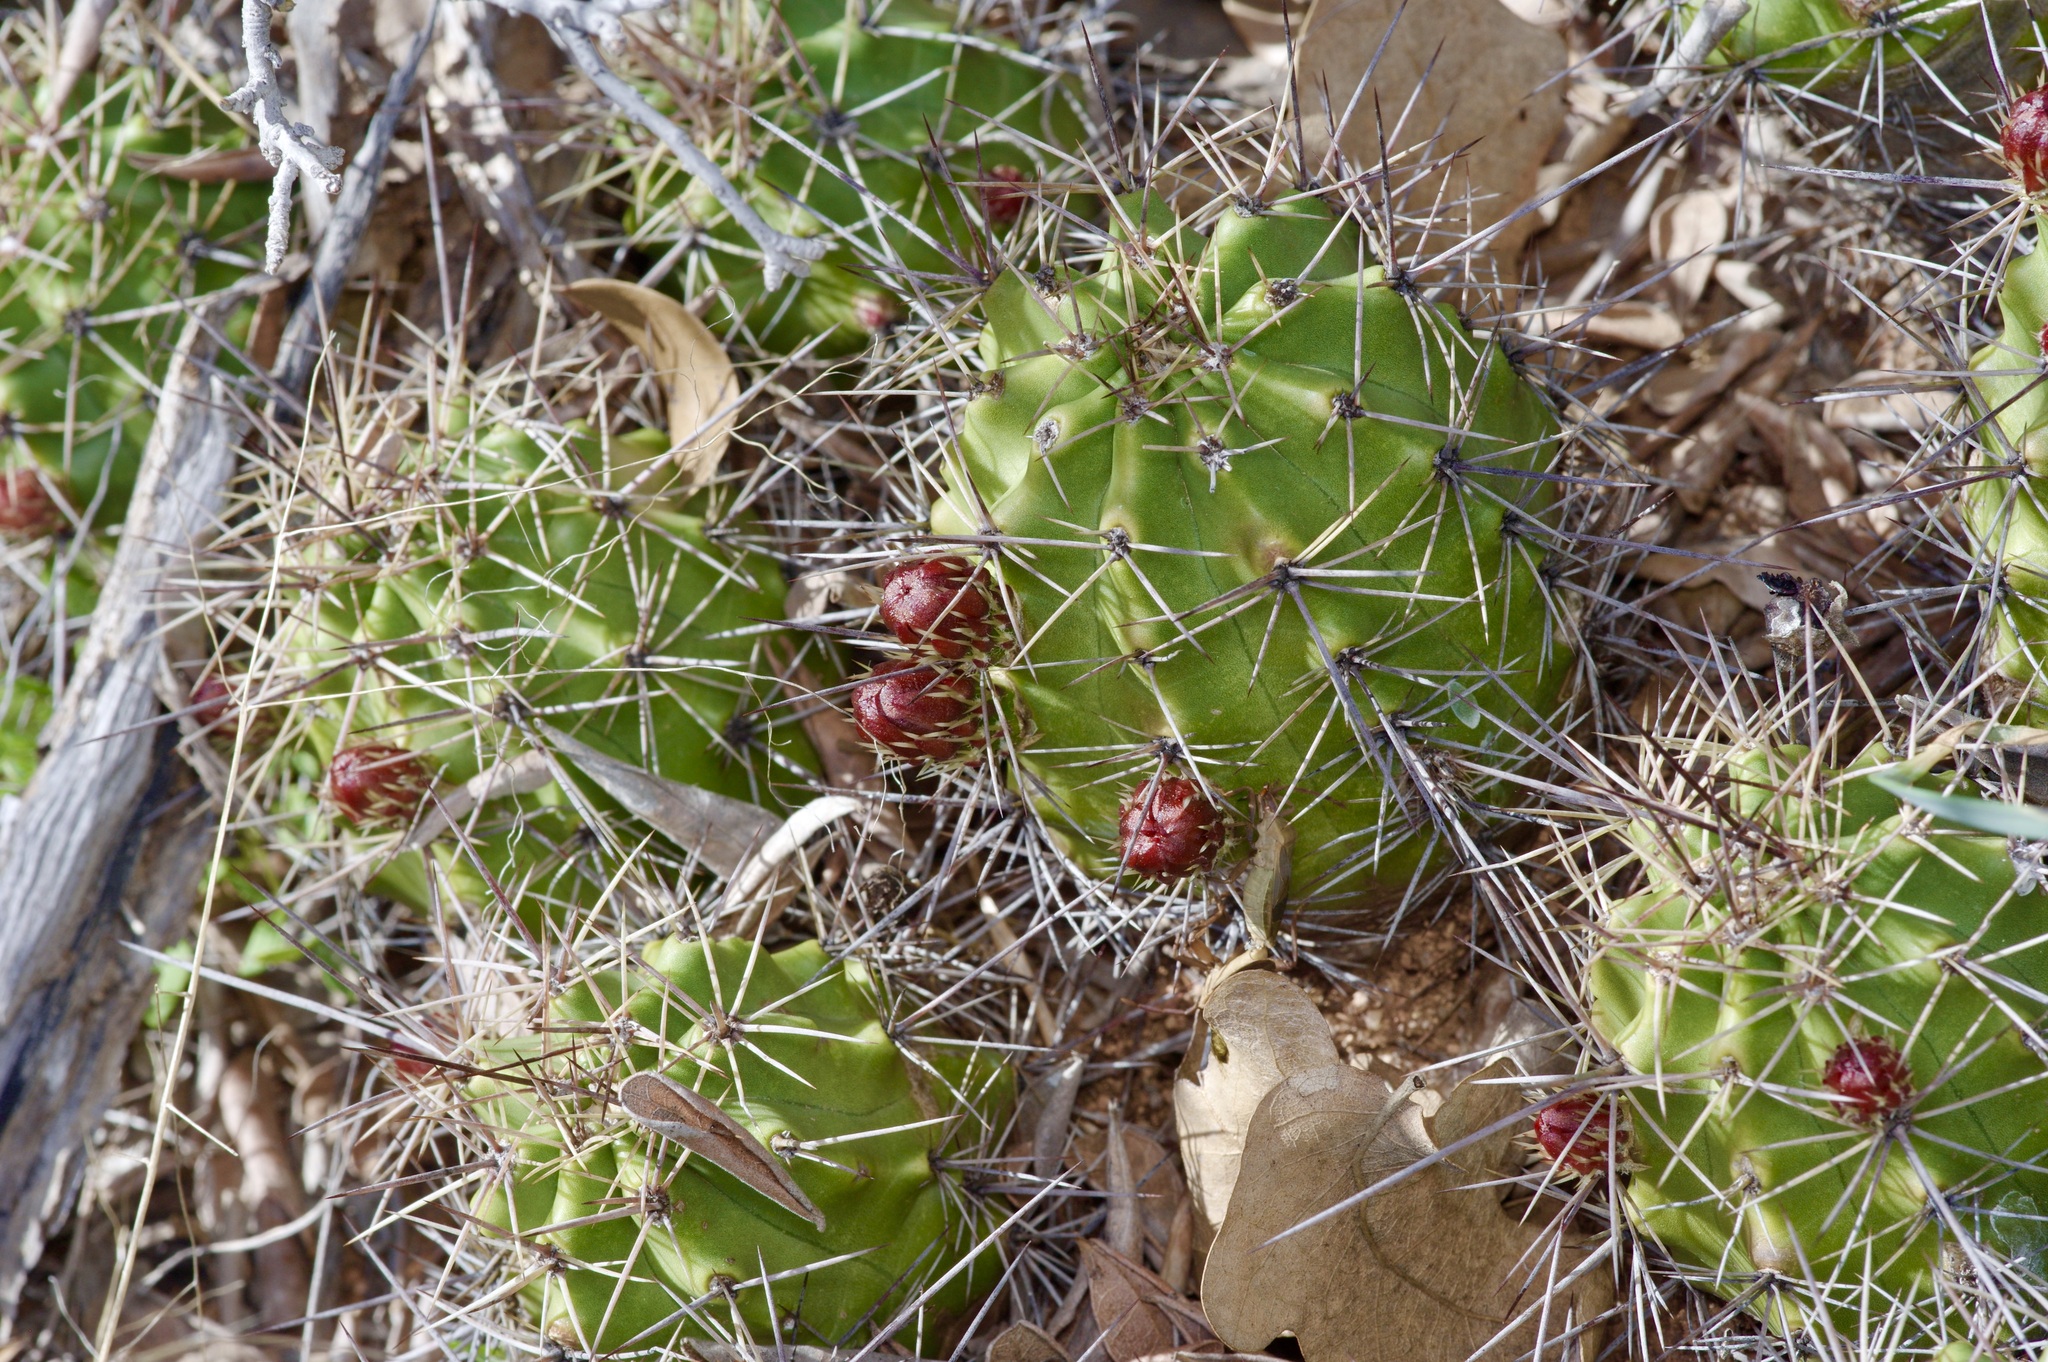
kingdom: Plantae
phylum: Tracheophyta
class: Magnoliopsida
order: Caryophyllales
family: Cactaceae
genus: Echinocereus
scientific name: Echinocereus coccineus
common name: Scarlet hedgehog cactus
